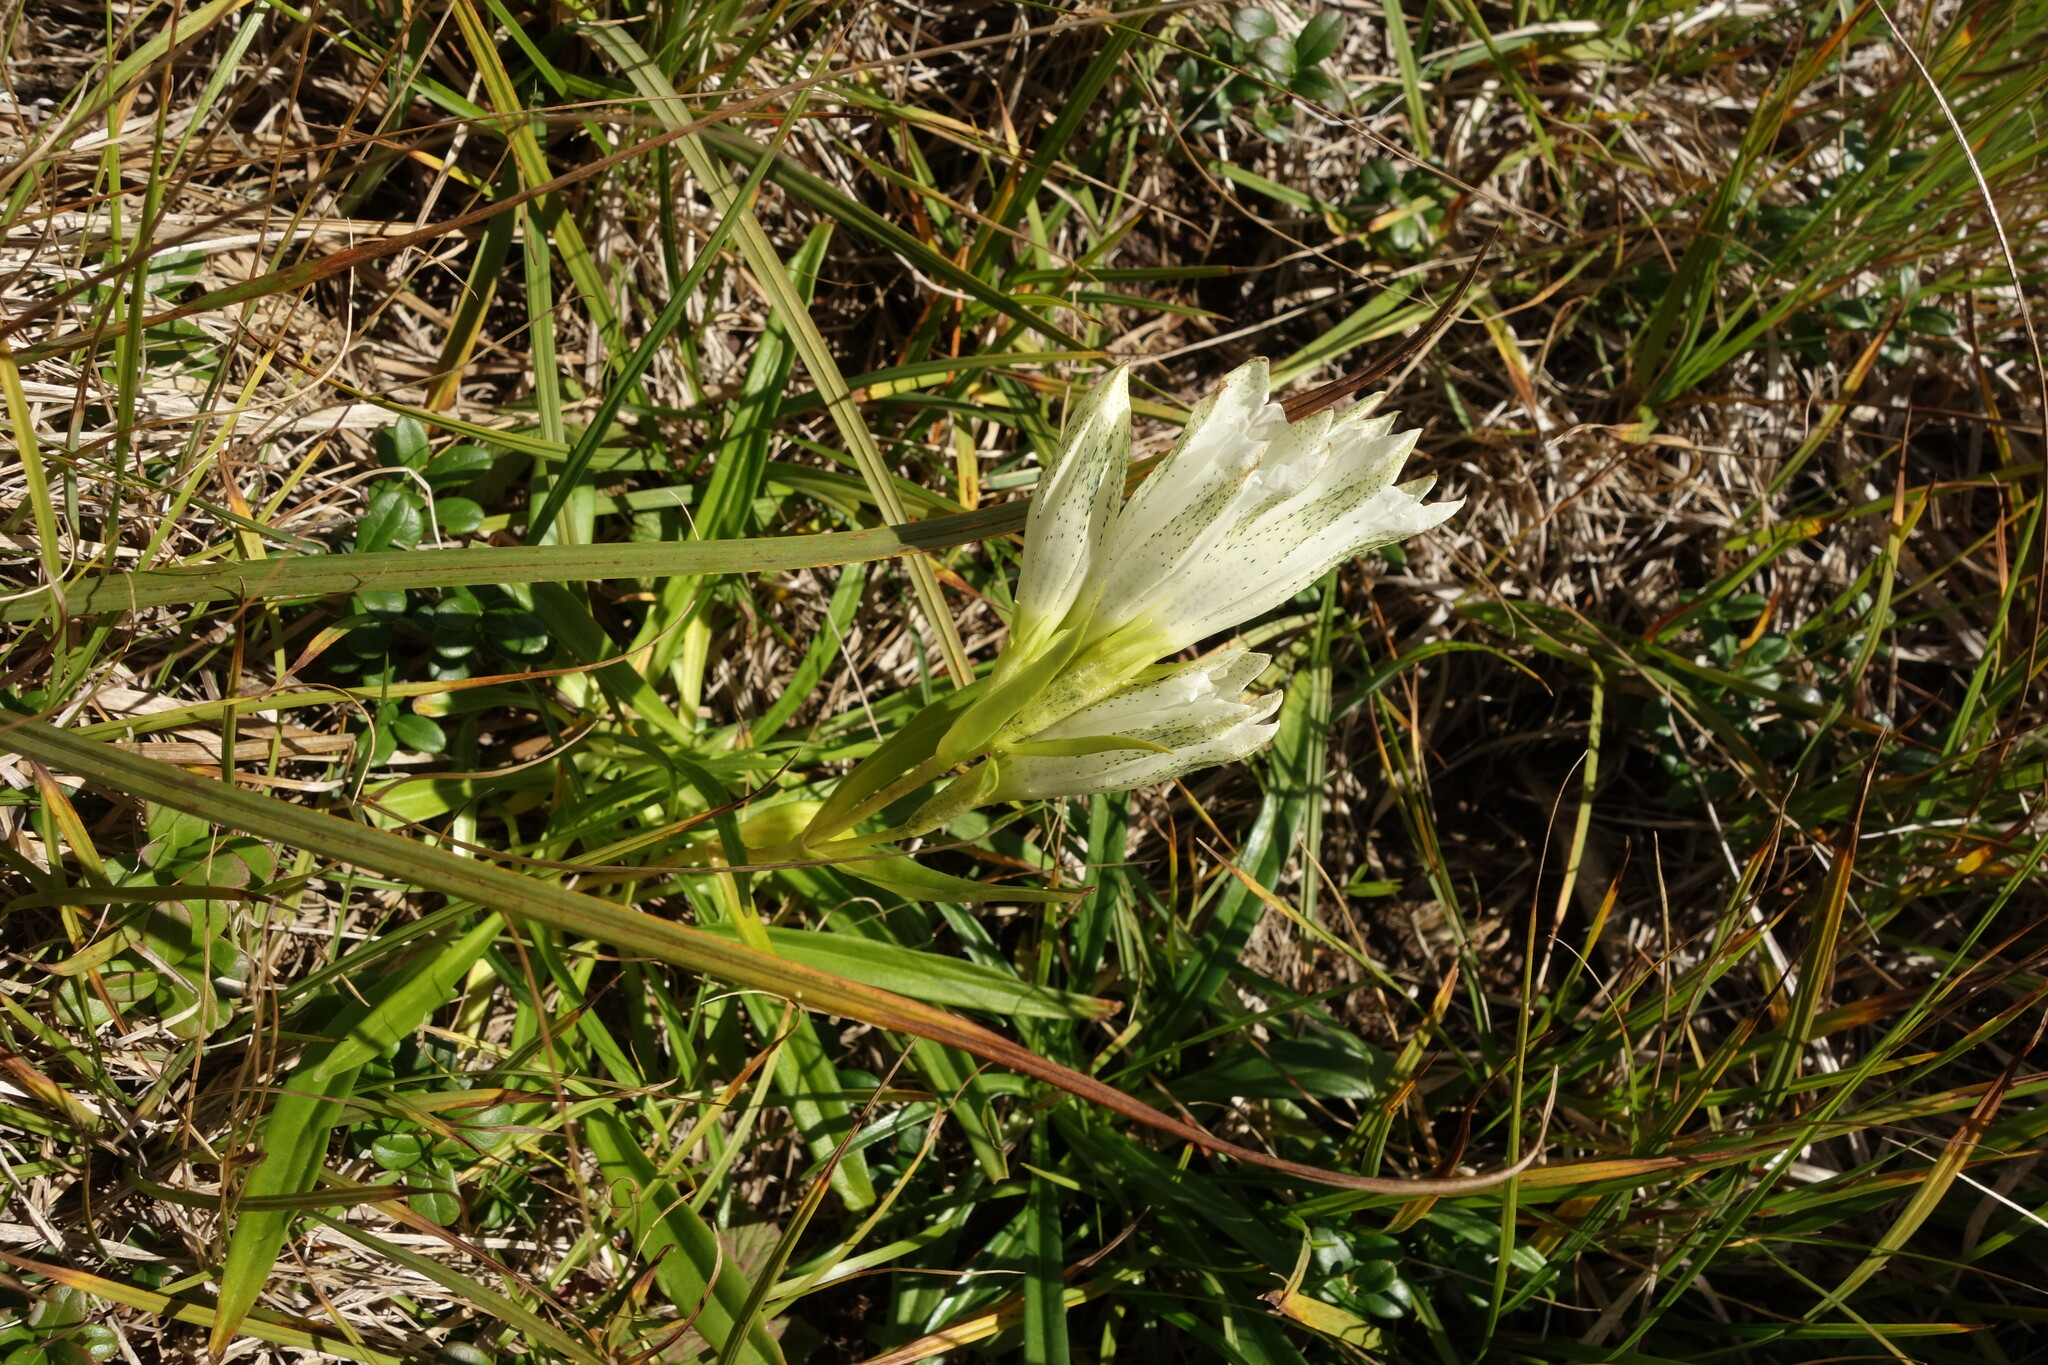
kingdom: Plantae
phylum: Tracheophyta
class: Magnoliopsida
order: Gentianales
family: Gentianaceae
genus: Gentiana
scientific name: Gentiana algida
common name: Arctic gentian
